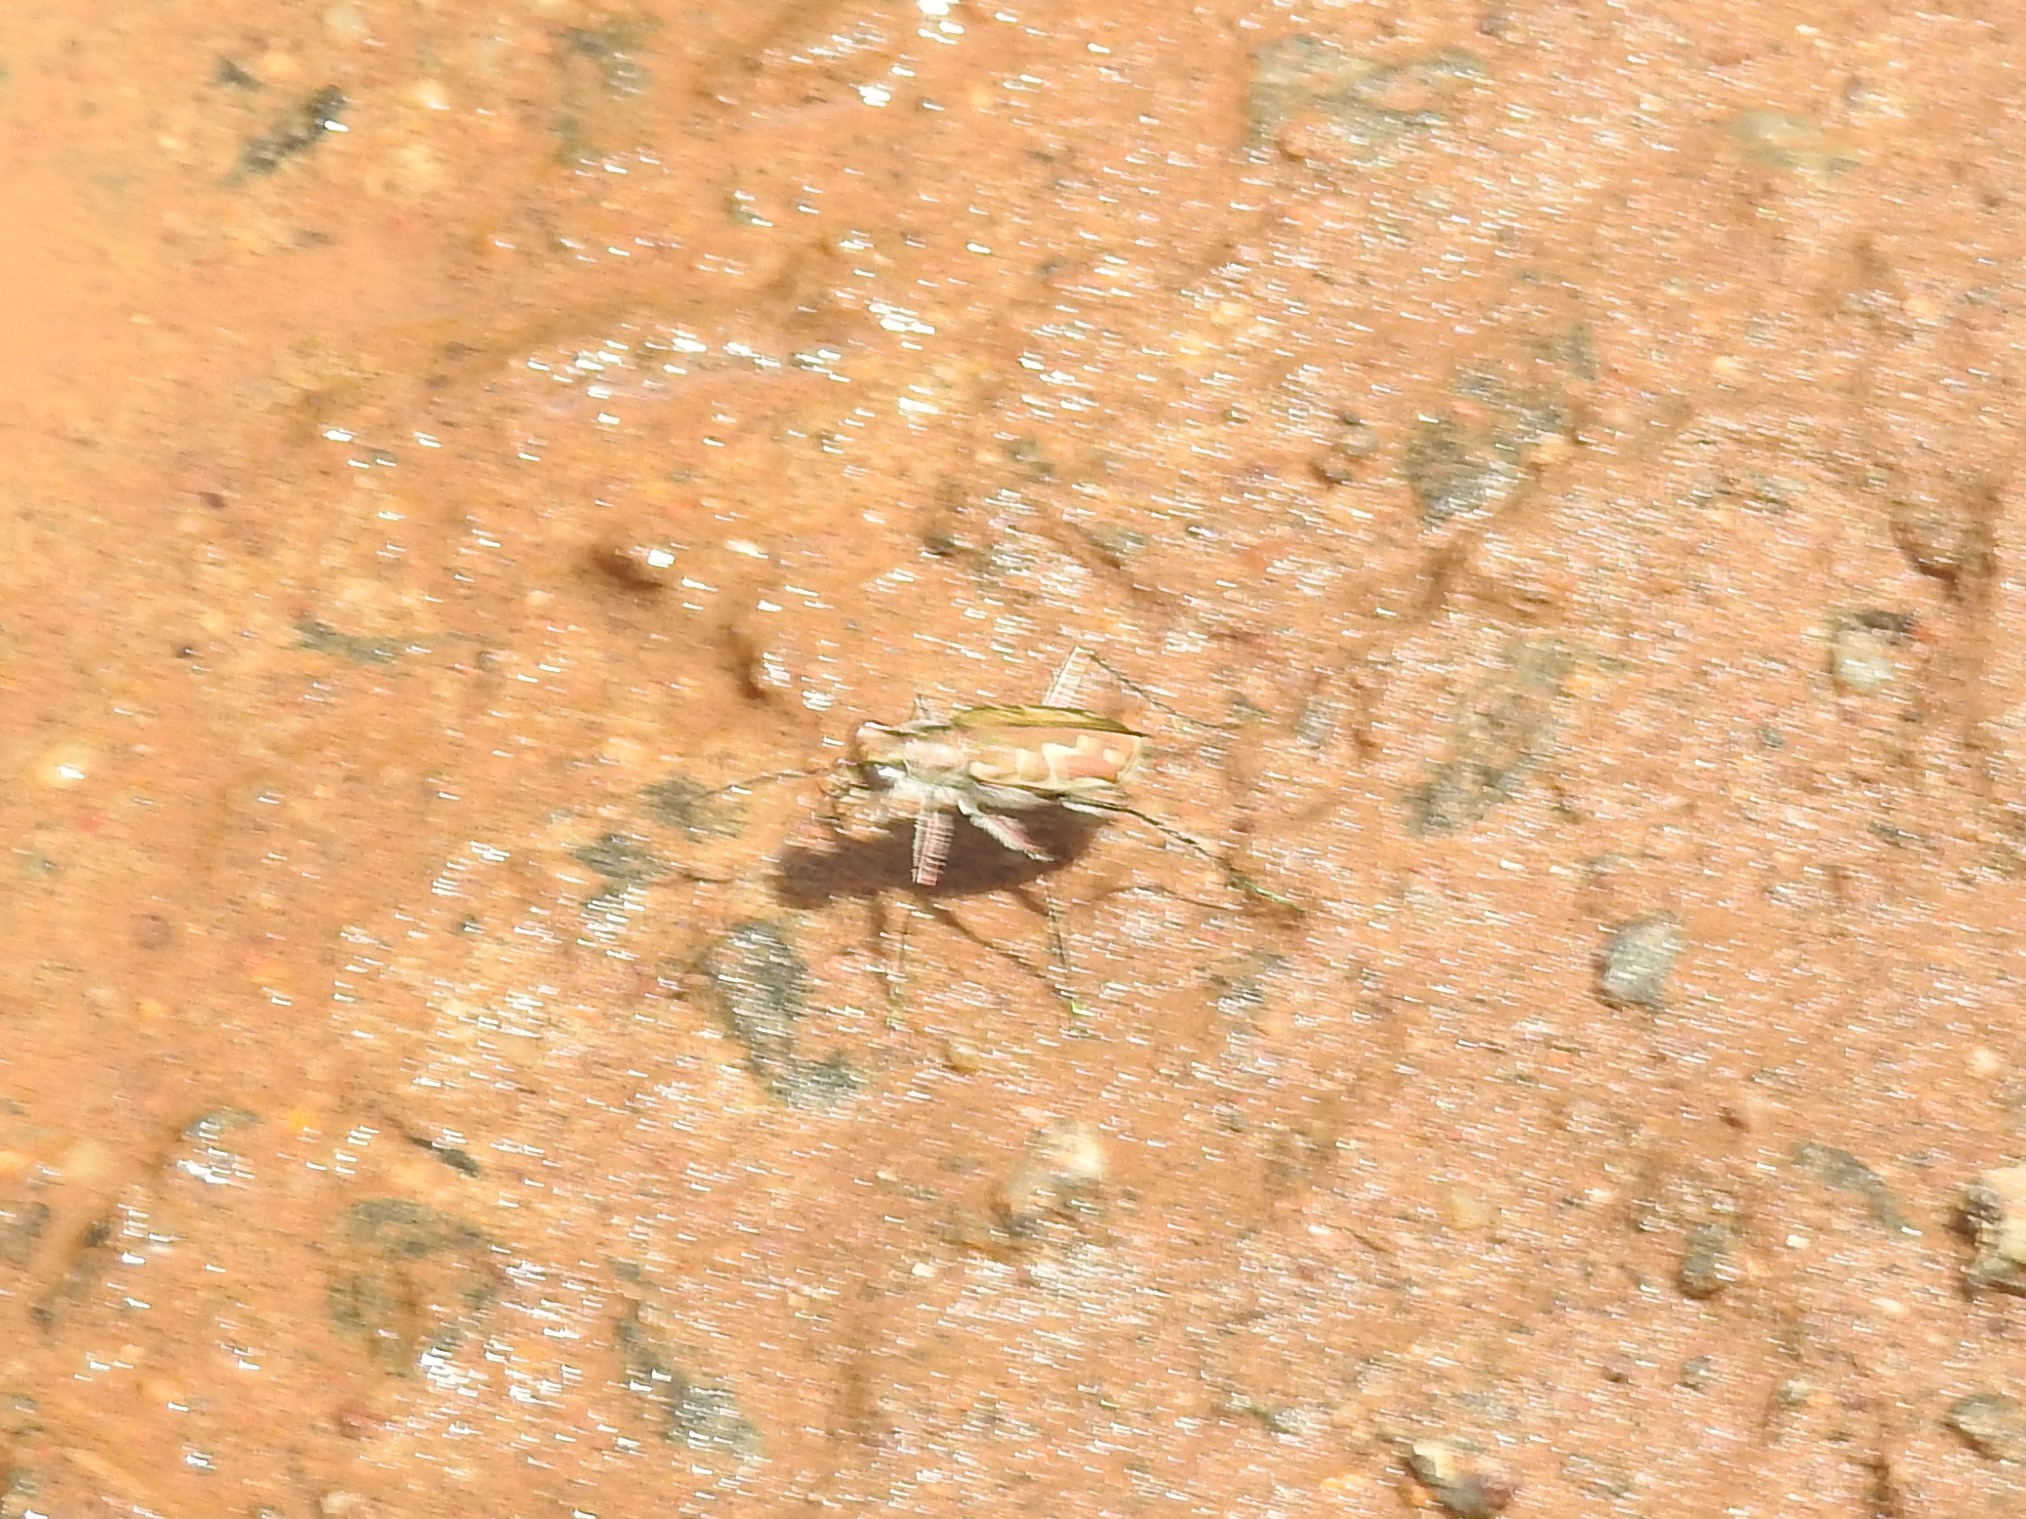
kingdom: Animalia
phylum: Arthropoda
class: Insecta
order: Coleoptera
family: Carabidae
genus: Cicindela
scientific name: Cicindela angulata
